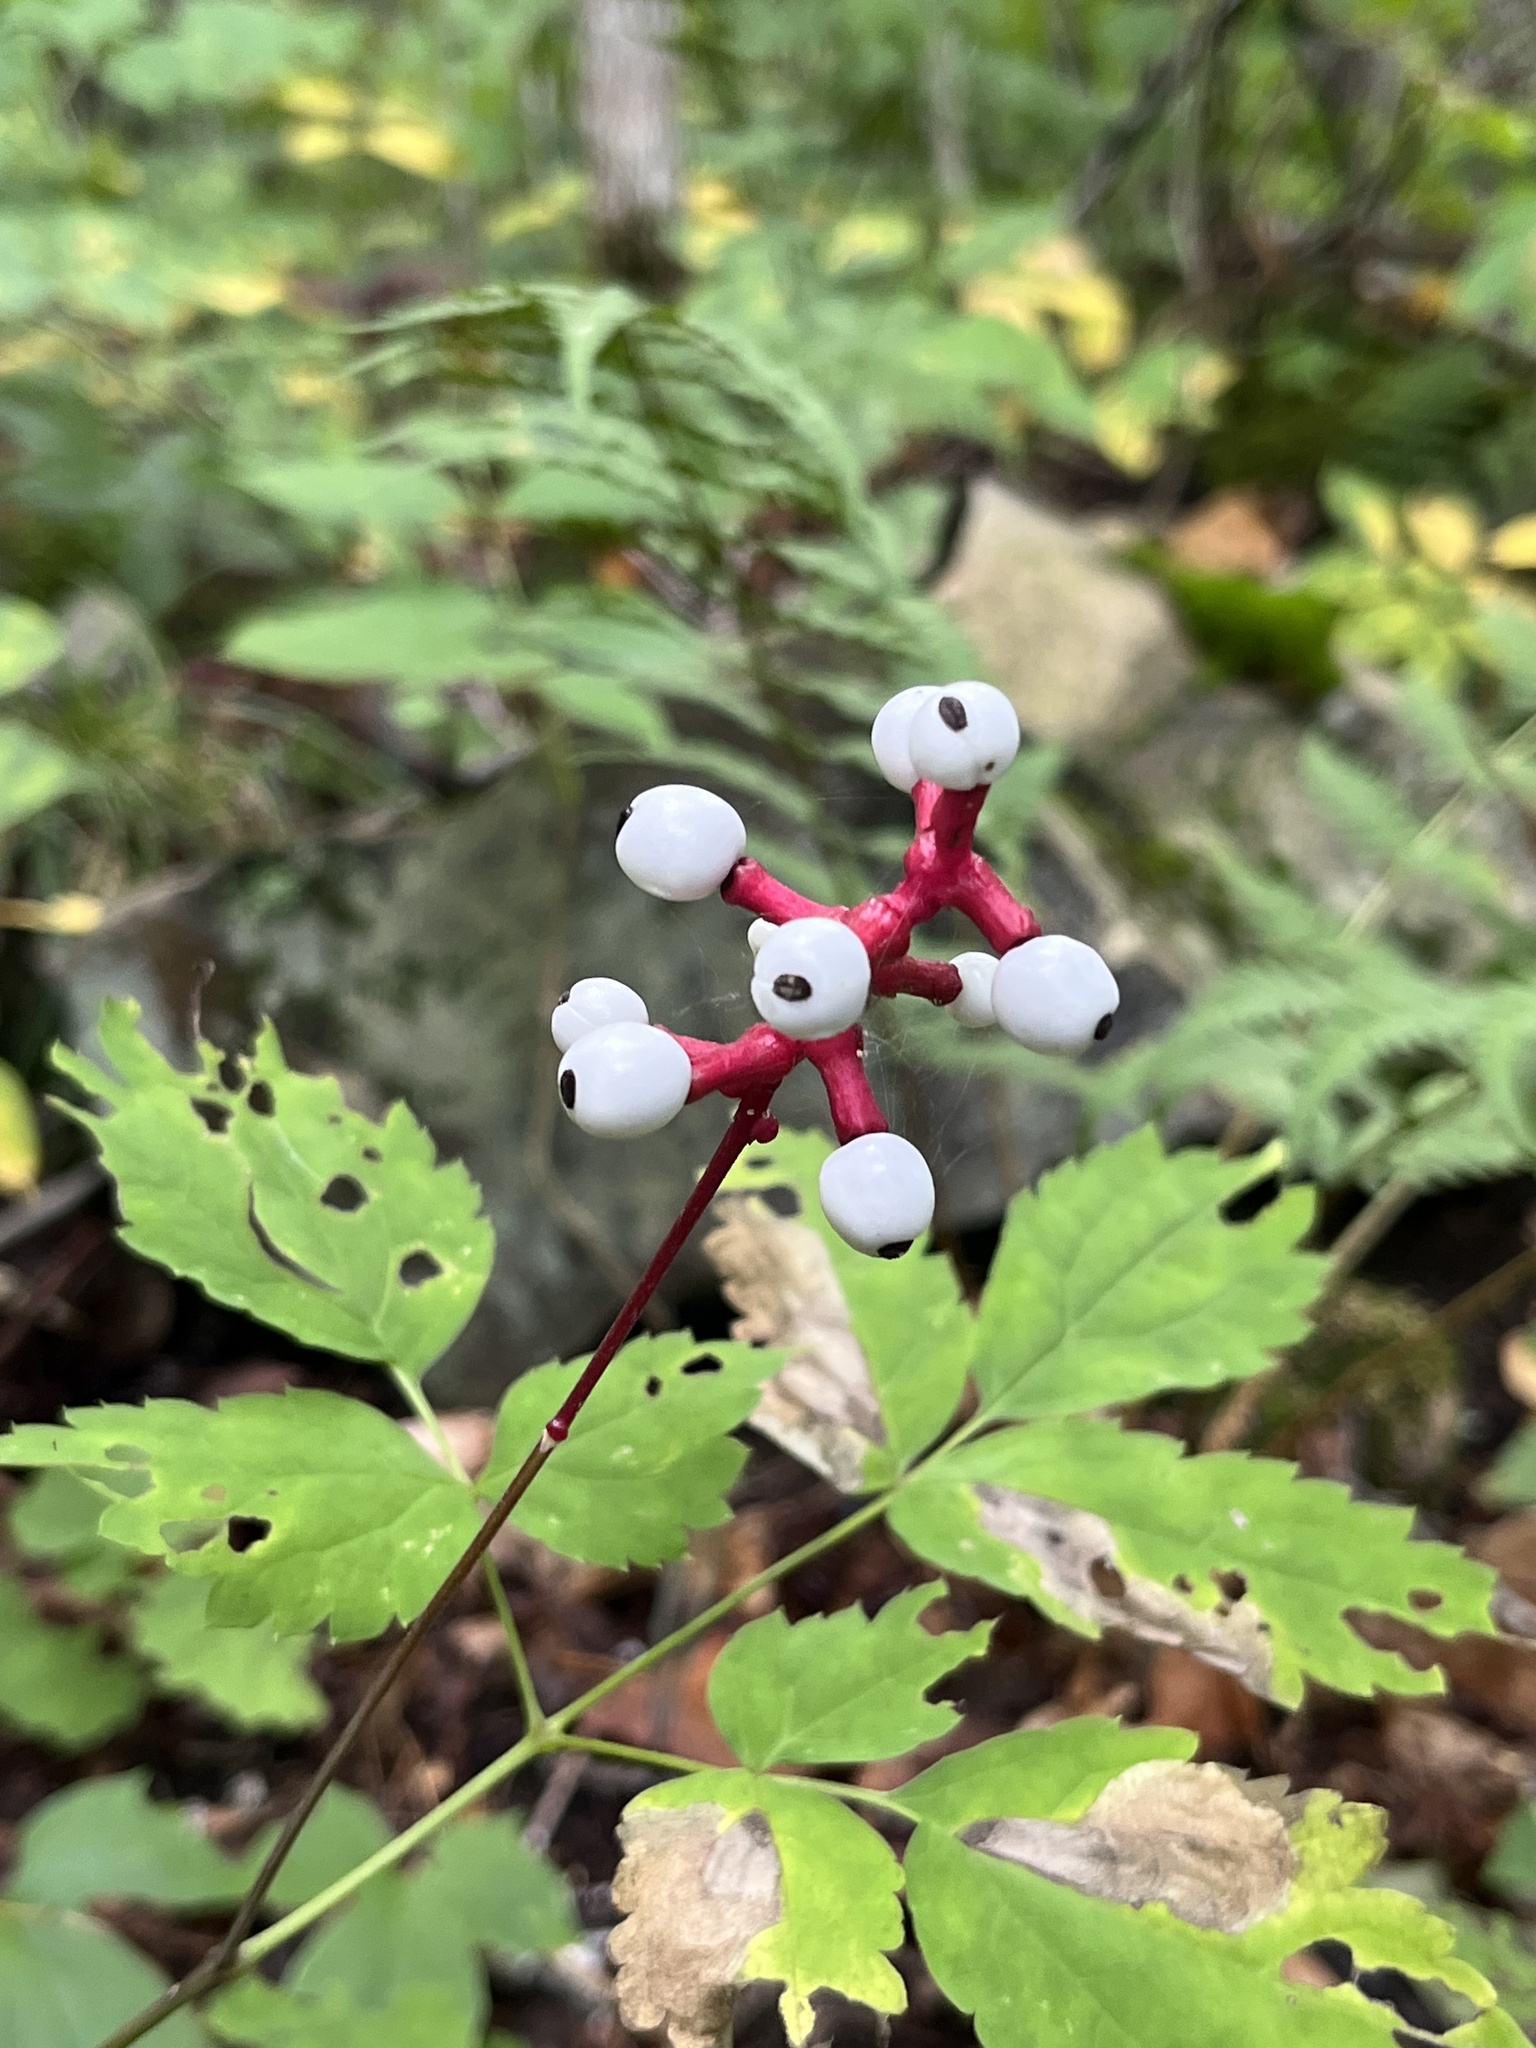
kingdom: Plantae
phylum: Tracheophyta
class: Magnoliopsida
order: Ranunculales
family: Ranunculaceae
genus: Actaea
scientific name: Actaea pachypoda
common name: Doll's-eyes
